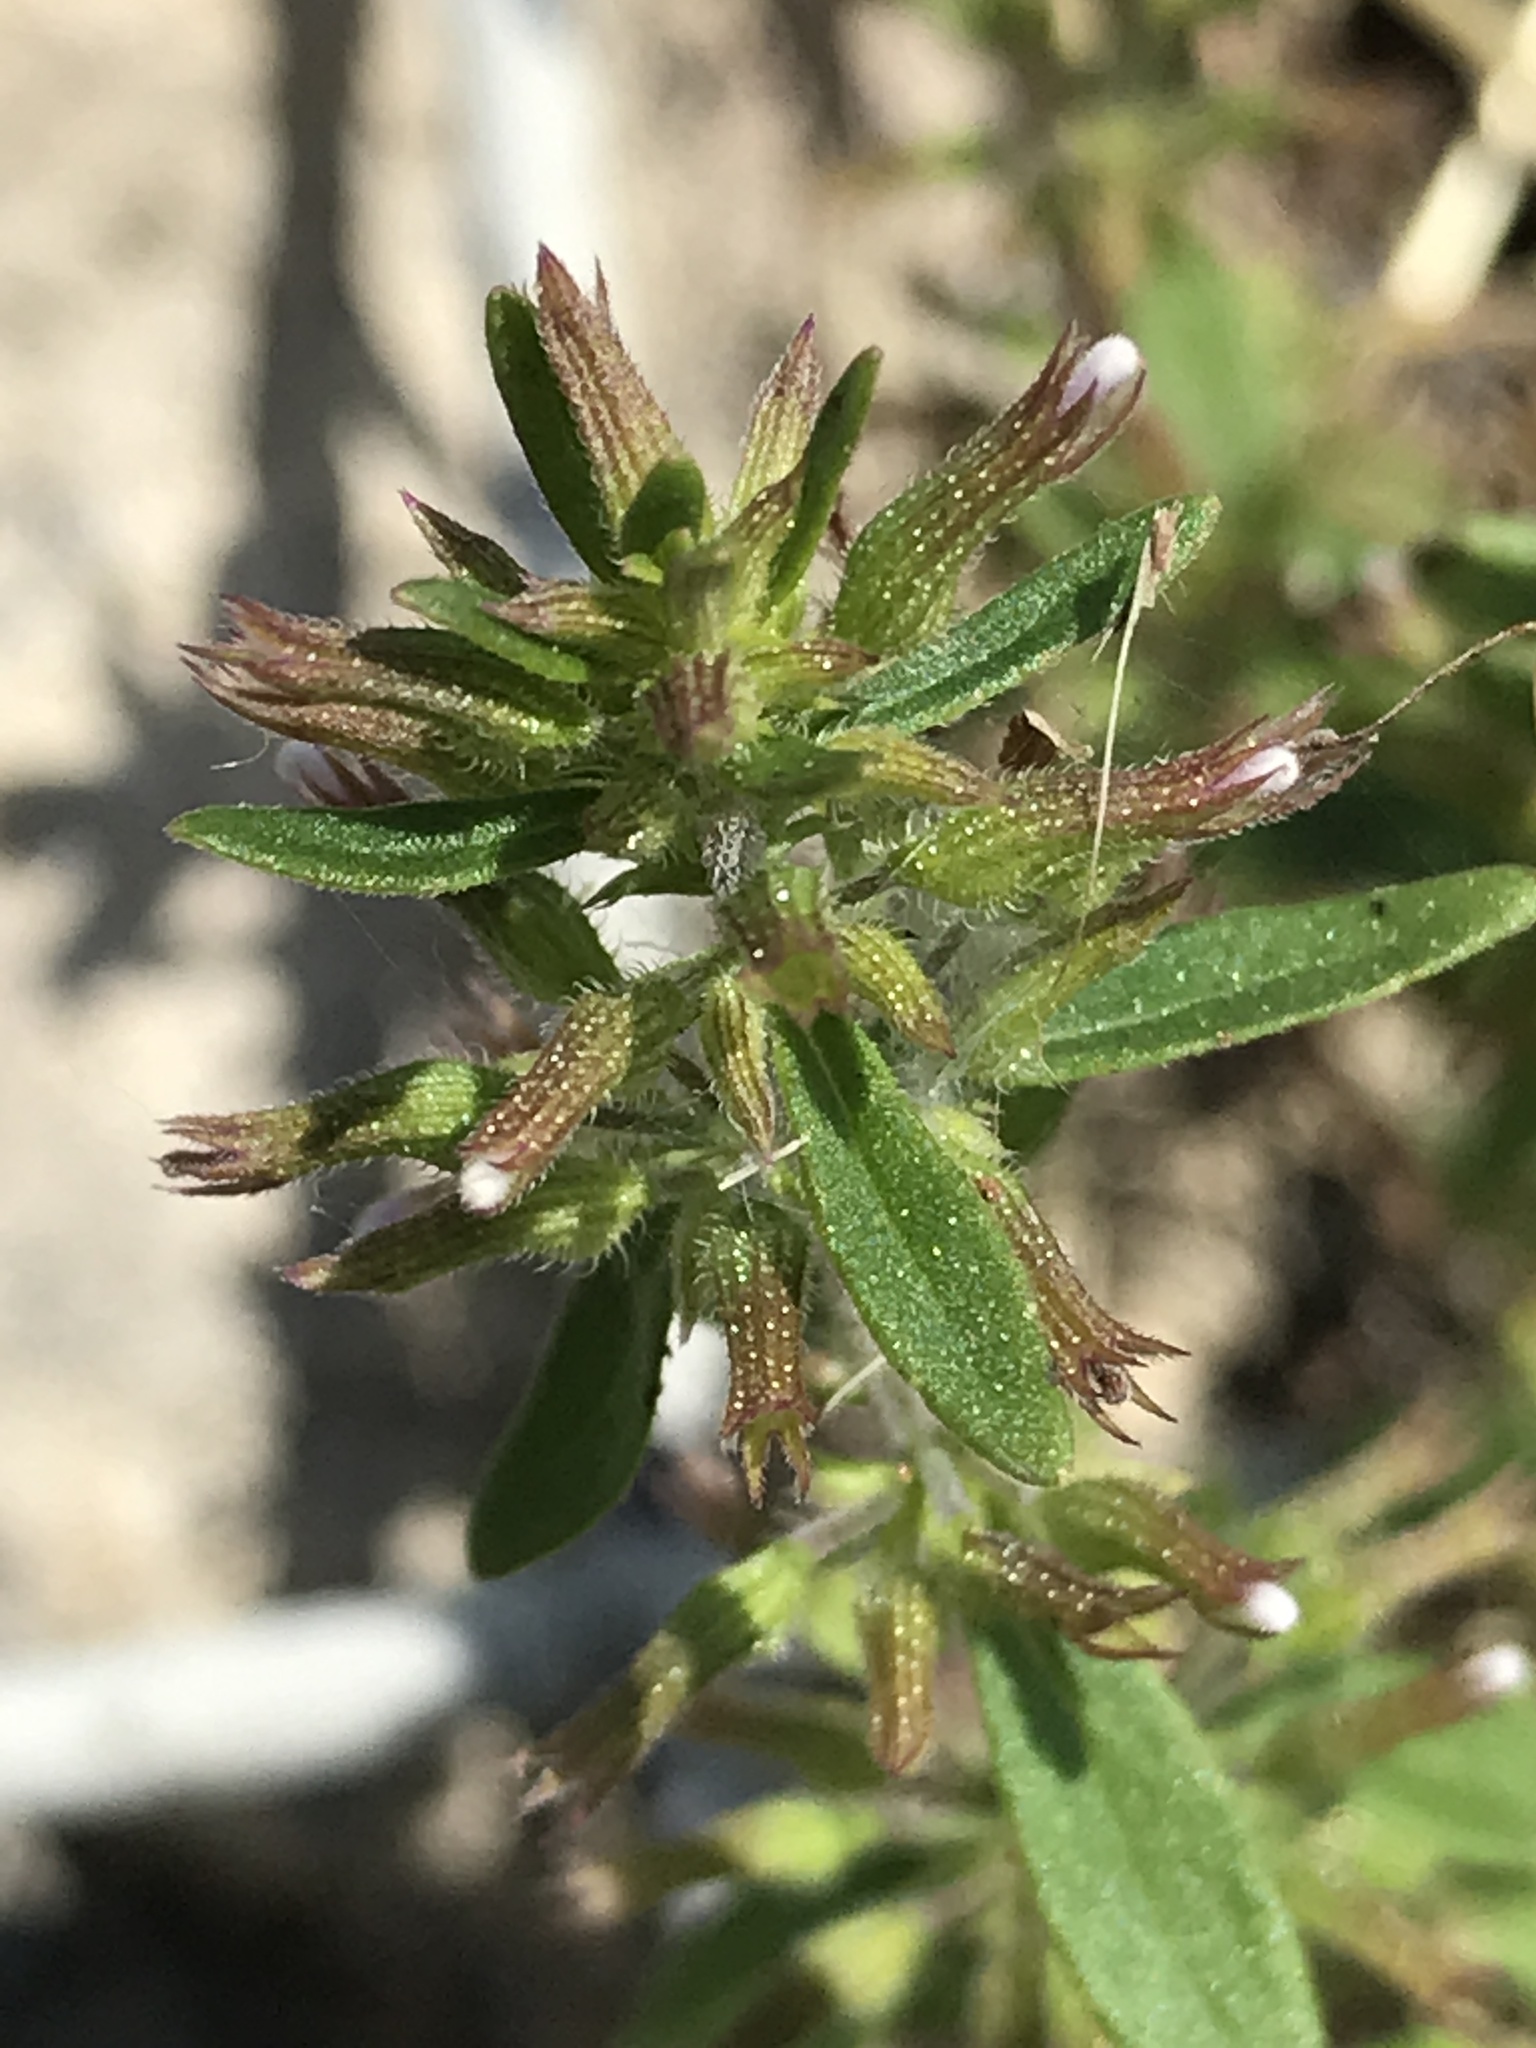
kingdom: Plantae
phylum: Tracheophyta
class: Magnoliopsida
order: Lamiales
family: Lamiaceae
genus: Hedeoma
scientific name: Hedeoma acinoides
